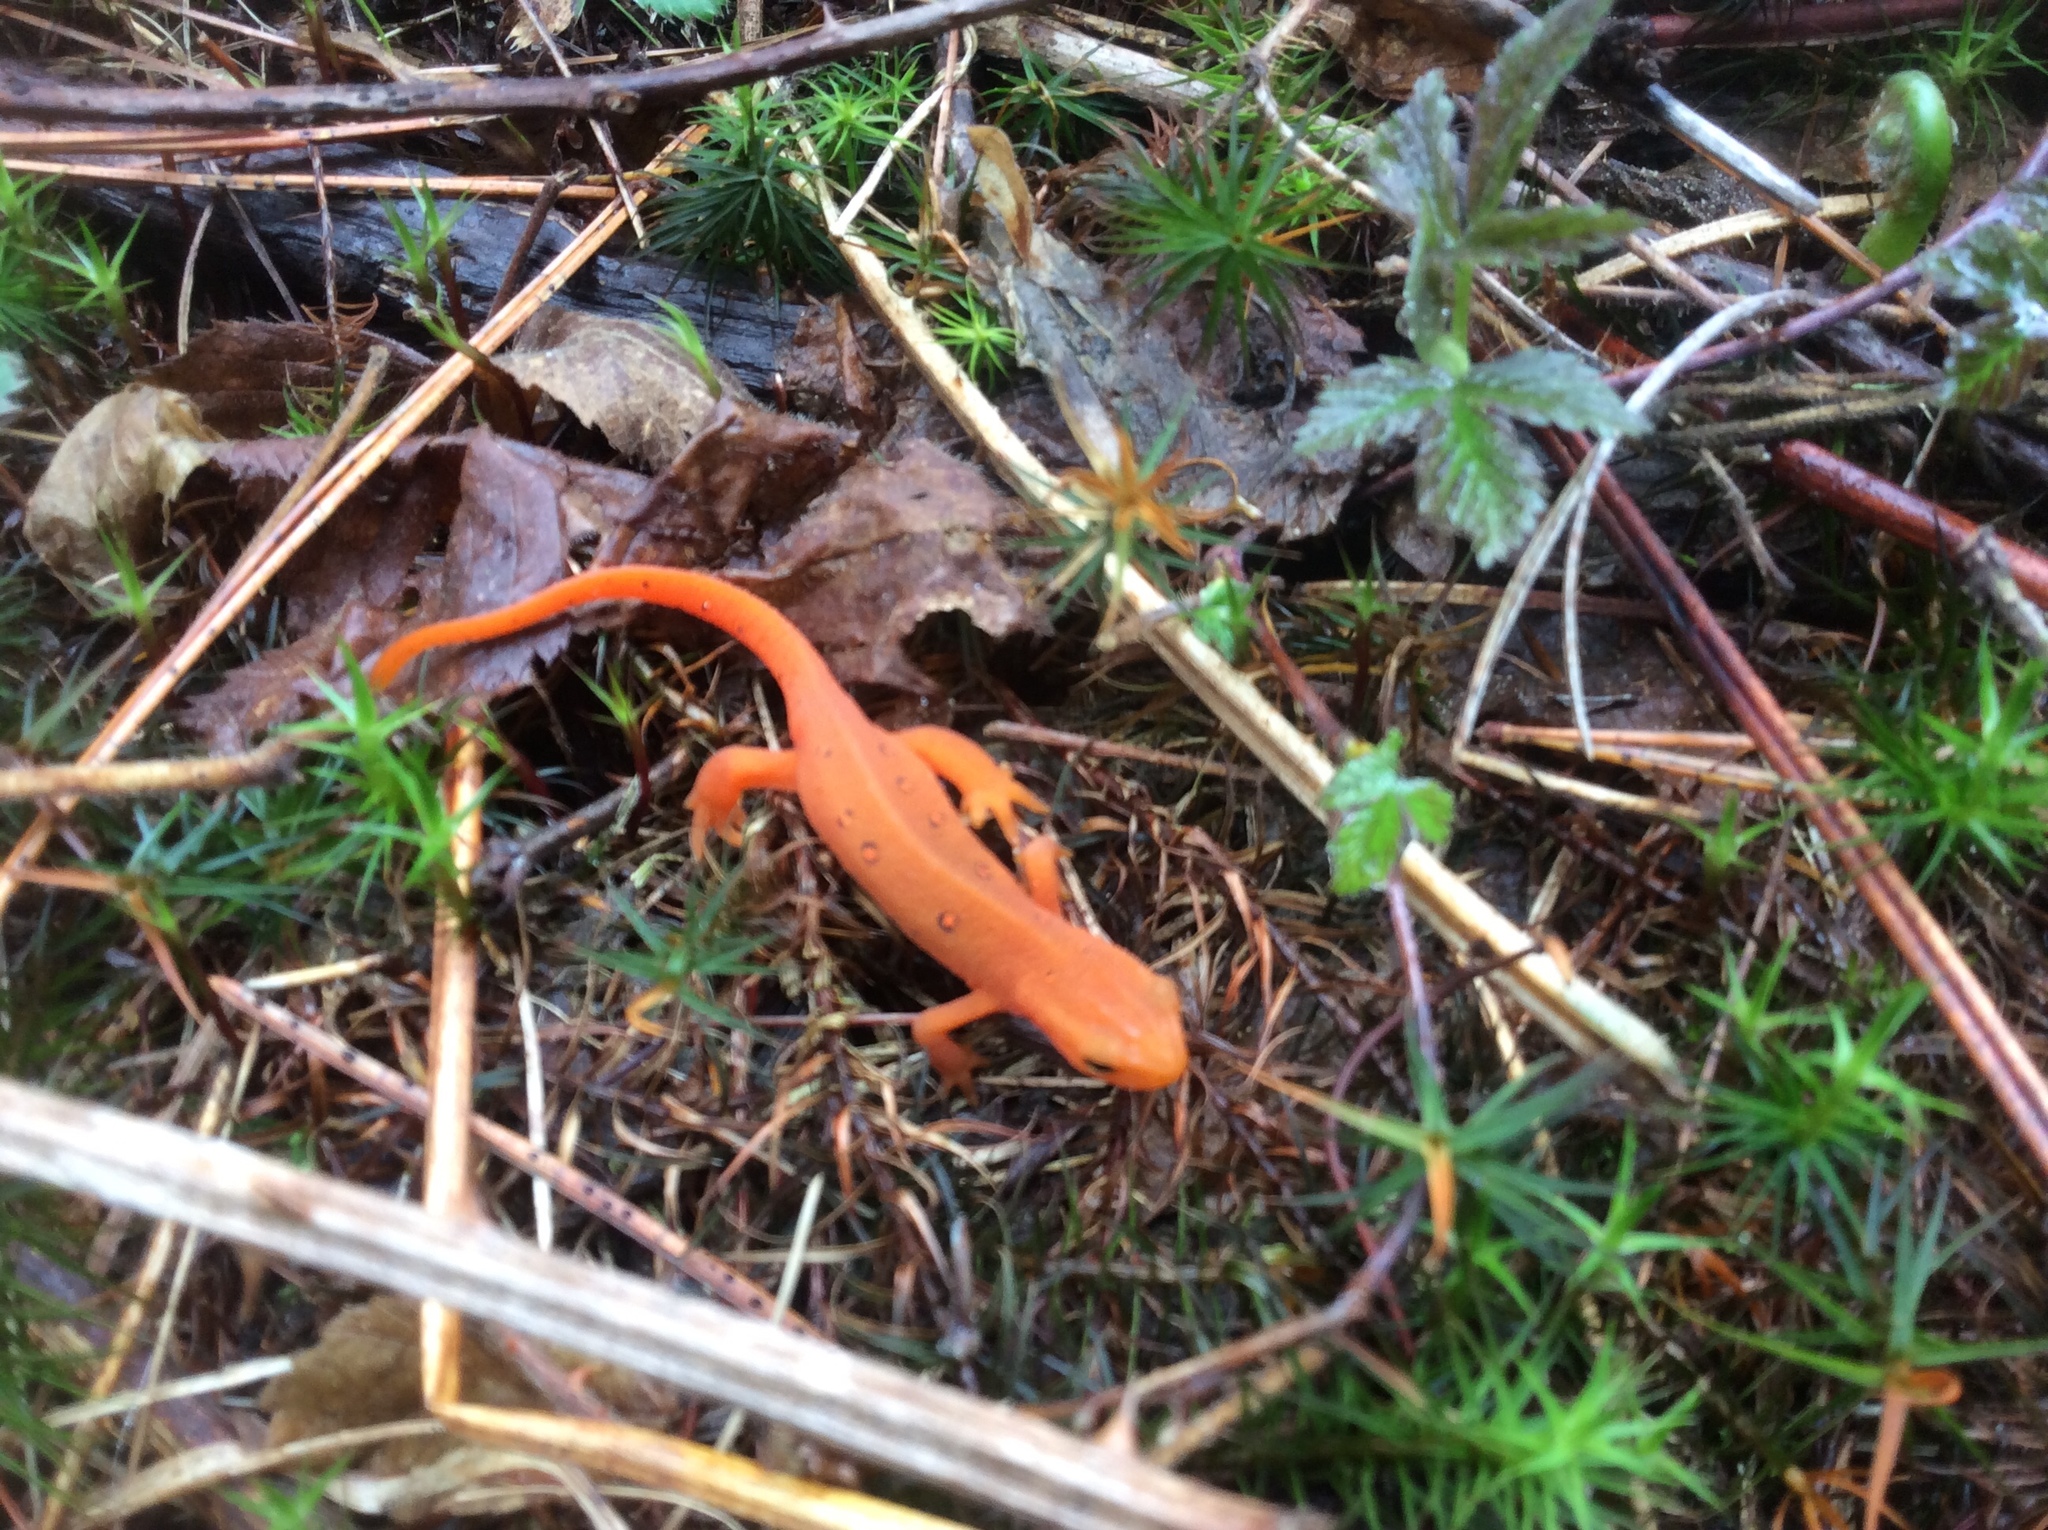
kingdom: Animalia
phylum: Chordata
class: Amphibia
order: Caudata
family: Salamandridae
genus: Notophthalmus
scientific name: Notophthalmus viridescens
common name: Eastern newt
